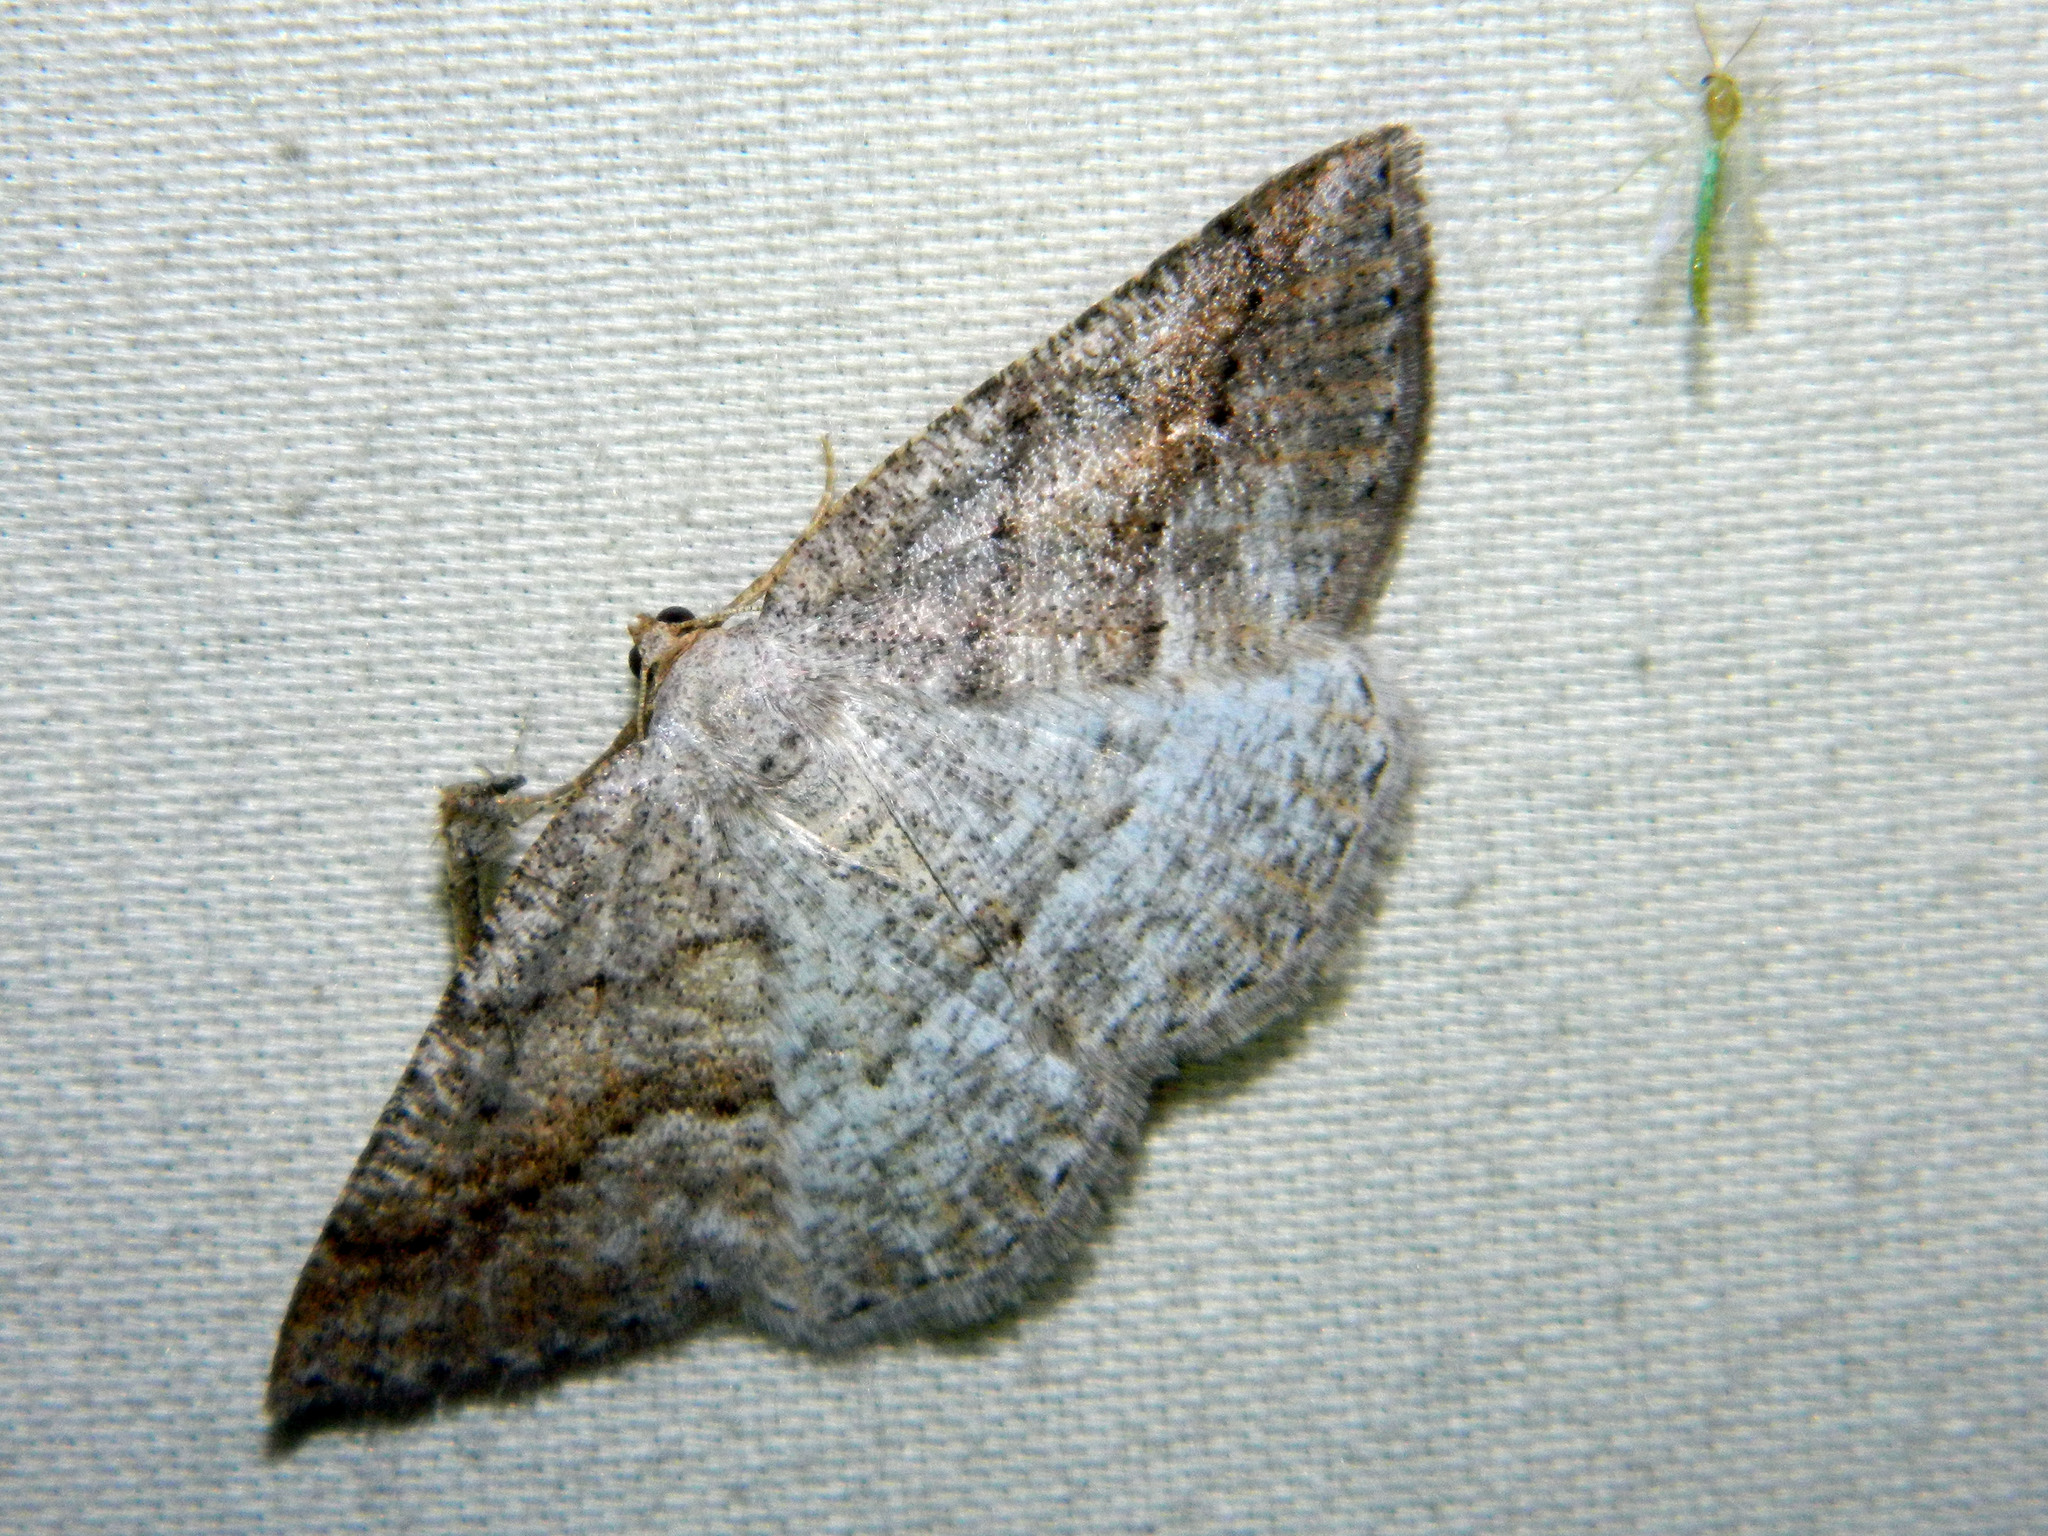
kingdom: Animalia
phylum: Arthropoda
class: Insecta
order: Lepidoptera
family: Geometridae
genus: Tacparia
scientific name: Tacparia detersata
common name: Pale alder moth
